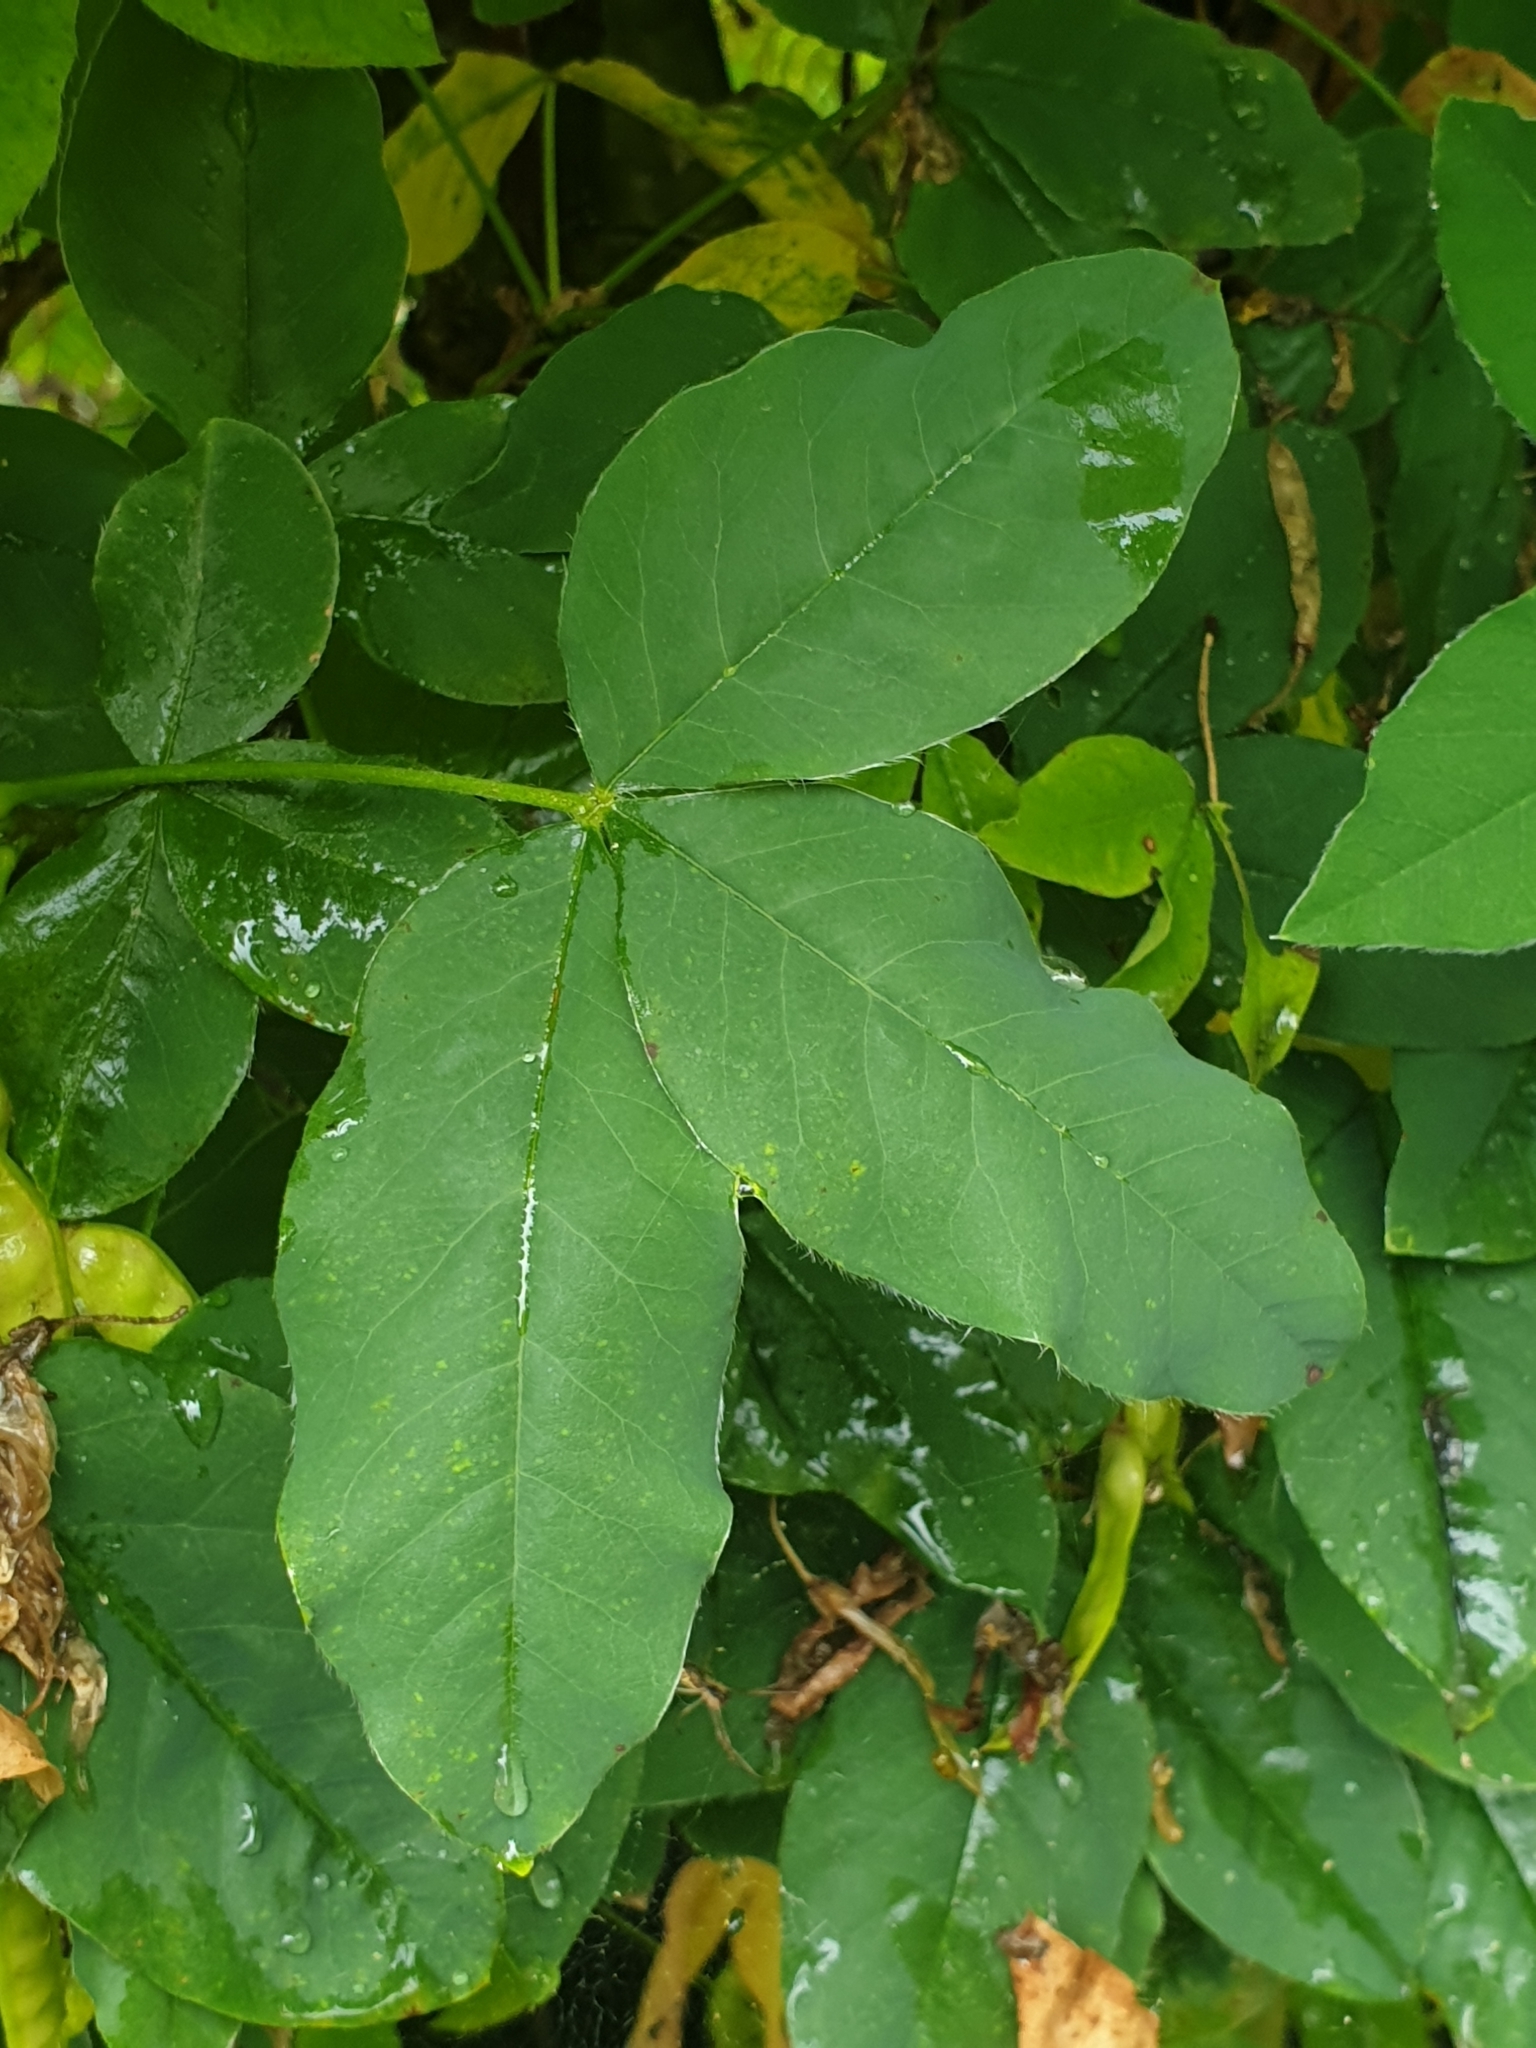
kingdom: Plantae
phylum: Tracheophyta
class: Magnoliopsida
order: Fabales
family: Fabaceae
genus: Laburnum
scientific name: Laburnum anagyroides
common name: Laburnum
